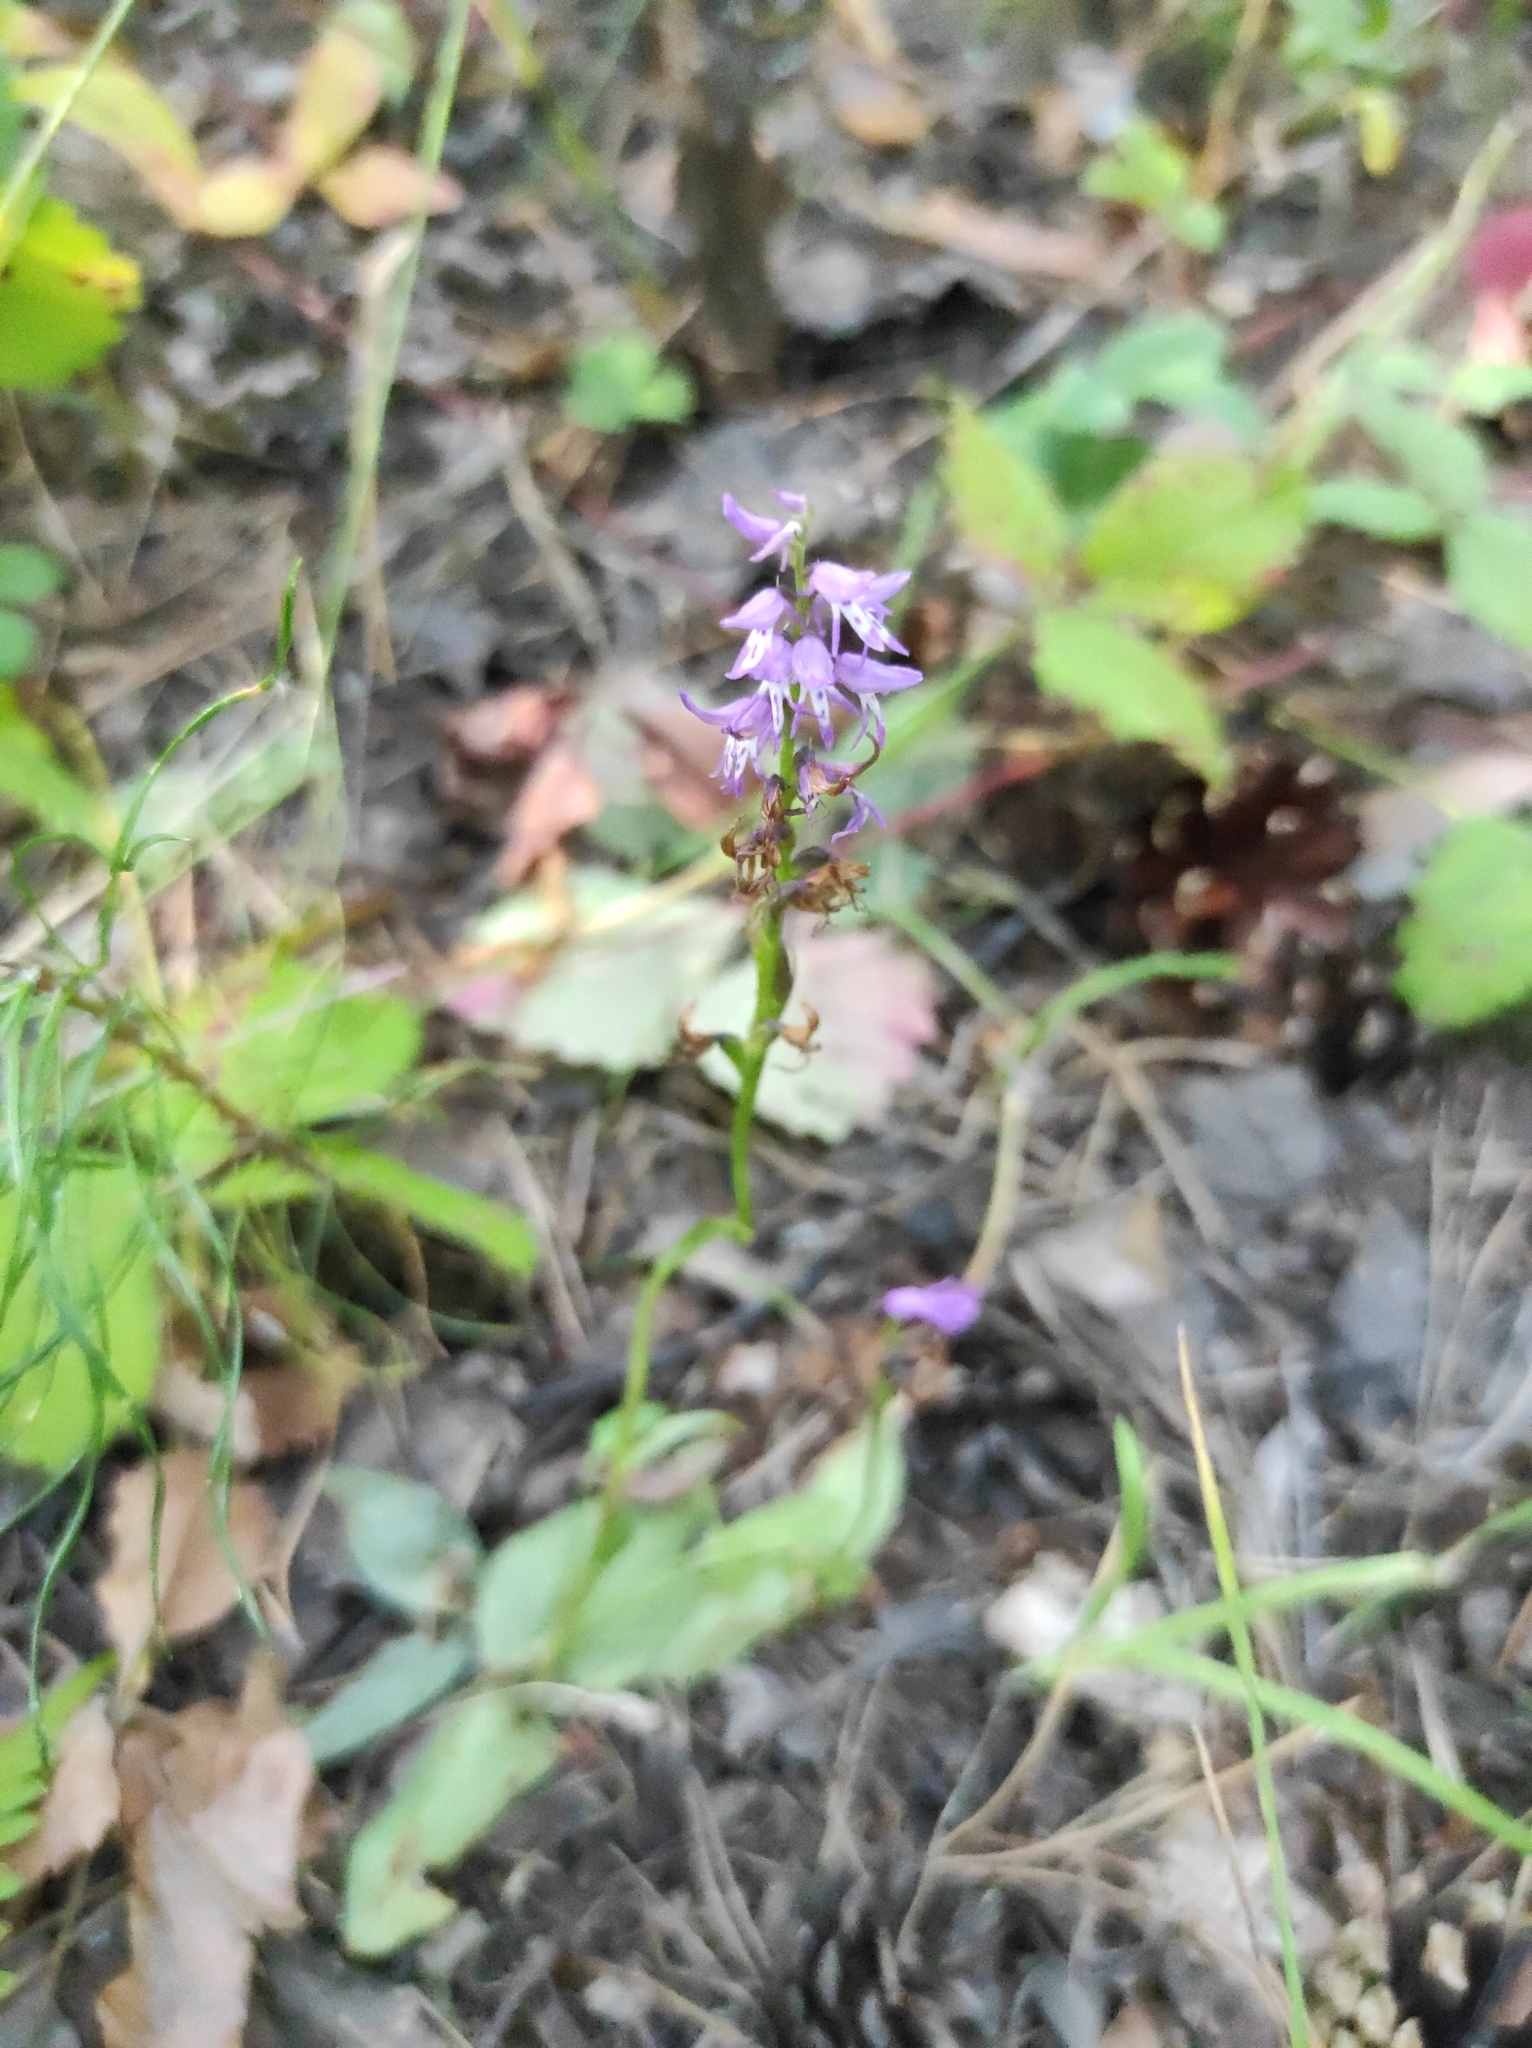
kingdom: Plantae
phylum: Tracheophyta
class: Liliopsida
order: Asparagales
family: Orchidaceae
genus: Hemipilia
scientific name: Hemipilia cucullata
